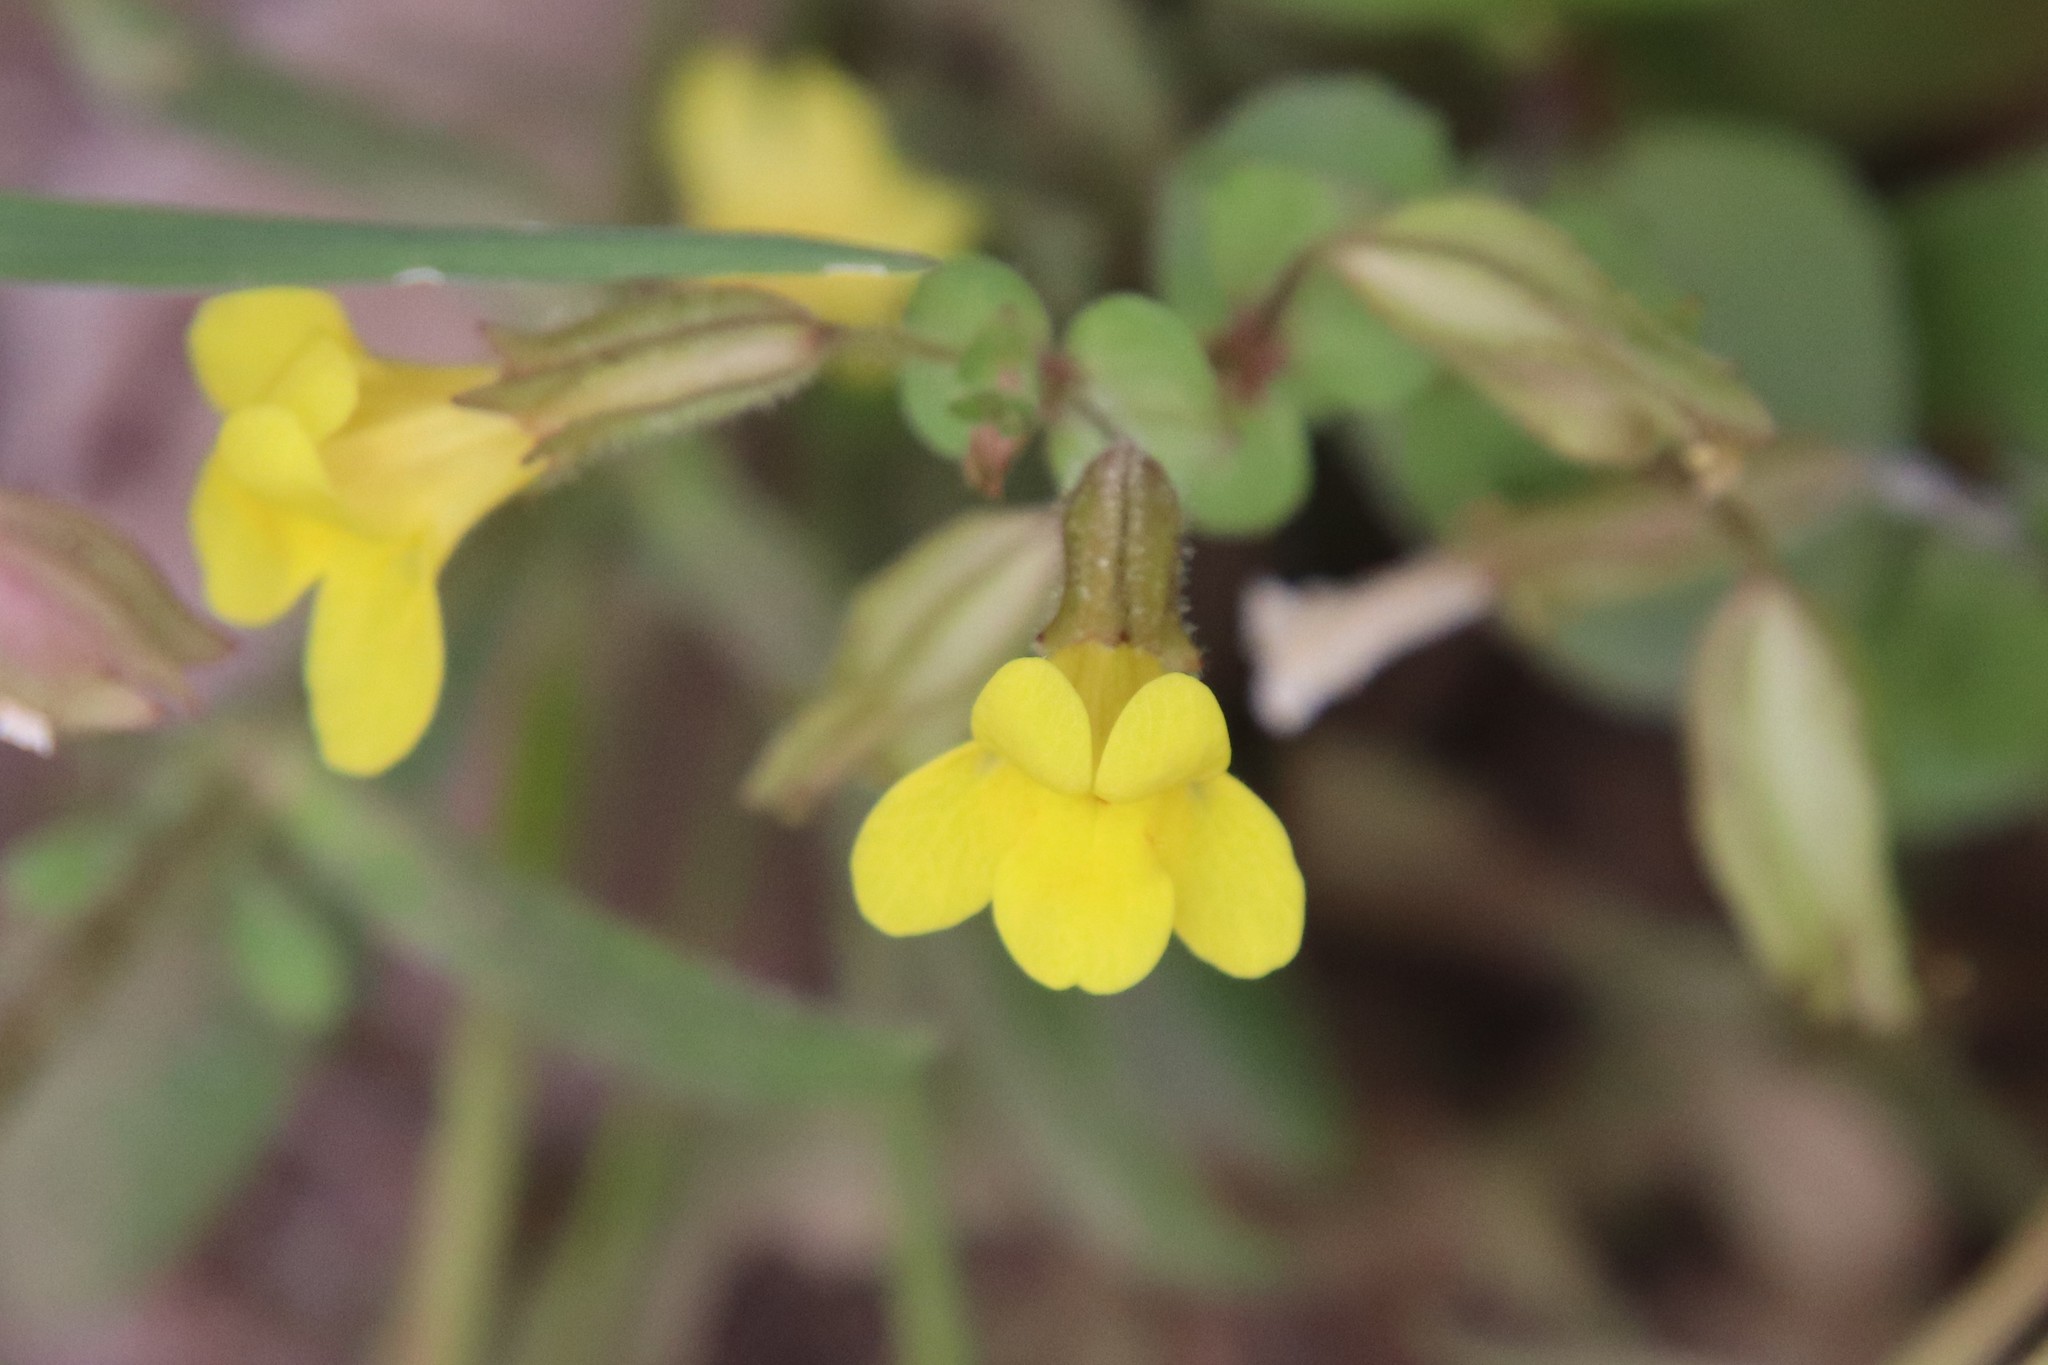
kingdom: Plantae
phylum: Tracheophyta
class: Magnoliopsida
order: Lamiales
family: Phrymaceae
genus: Erythranthe
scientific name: Erythranthe guttata
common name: Monkeyflower
